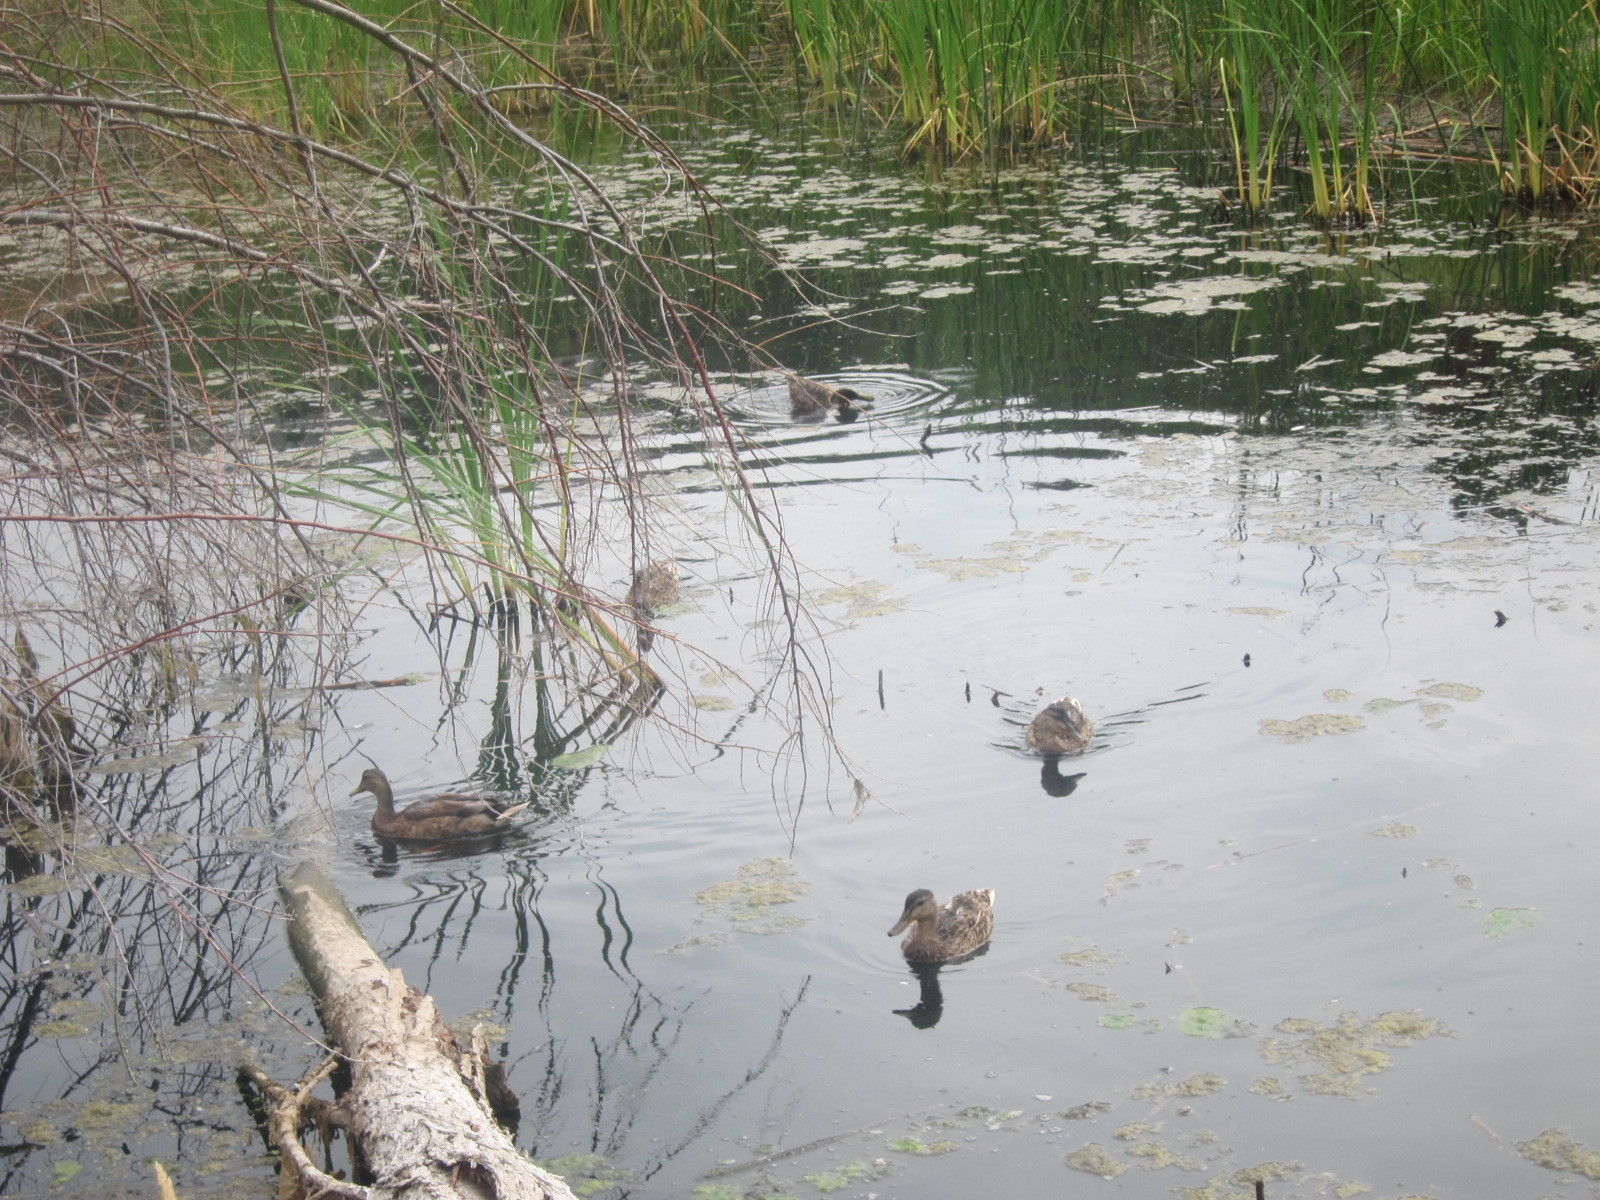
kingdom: Animalia
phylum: Chordata
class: Aves
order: Anseriformes
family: Anatidae
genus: Anas
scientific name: Anas platyrhynchos
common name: Mallard
